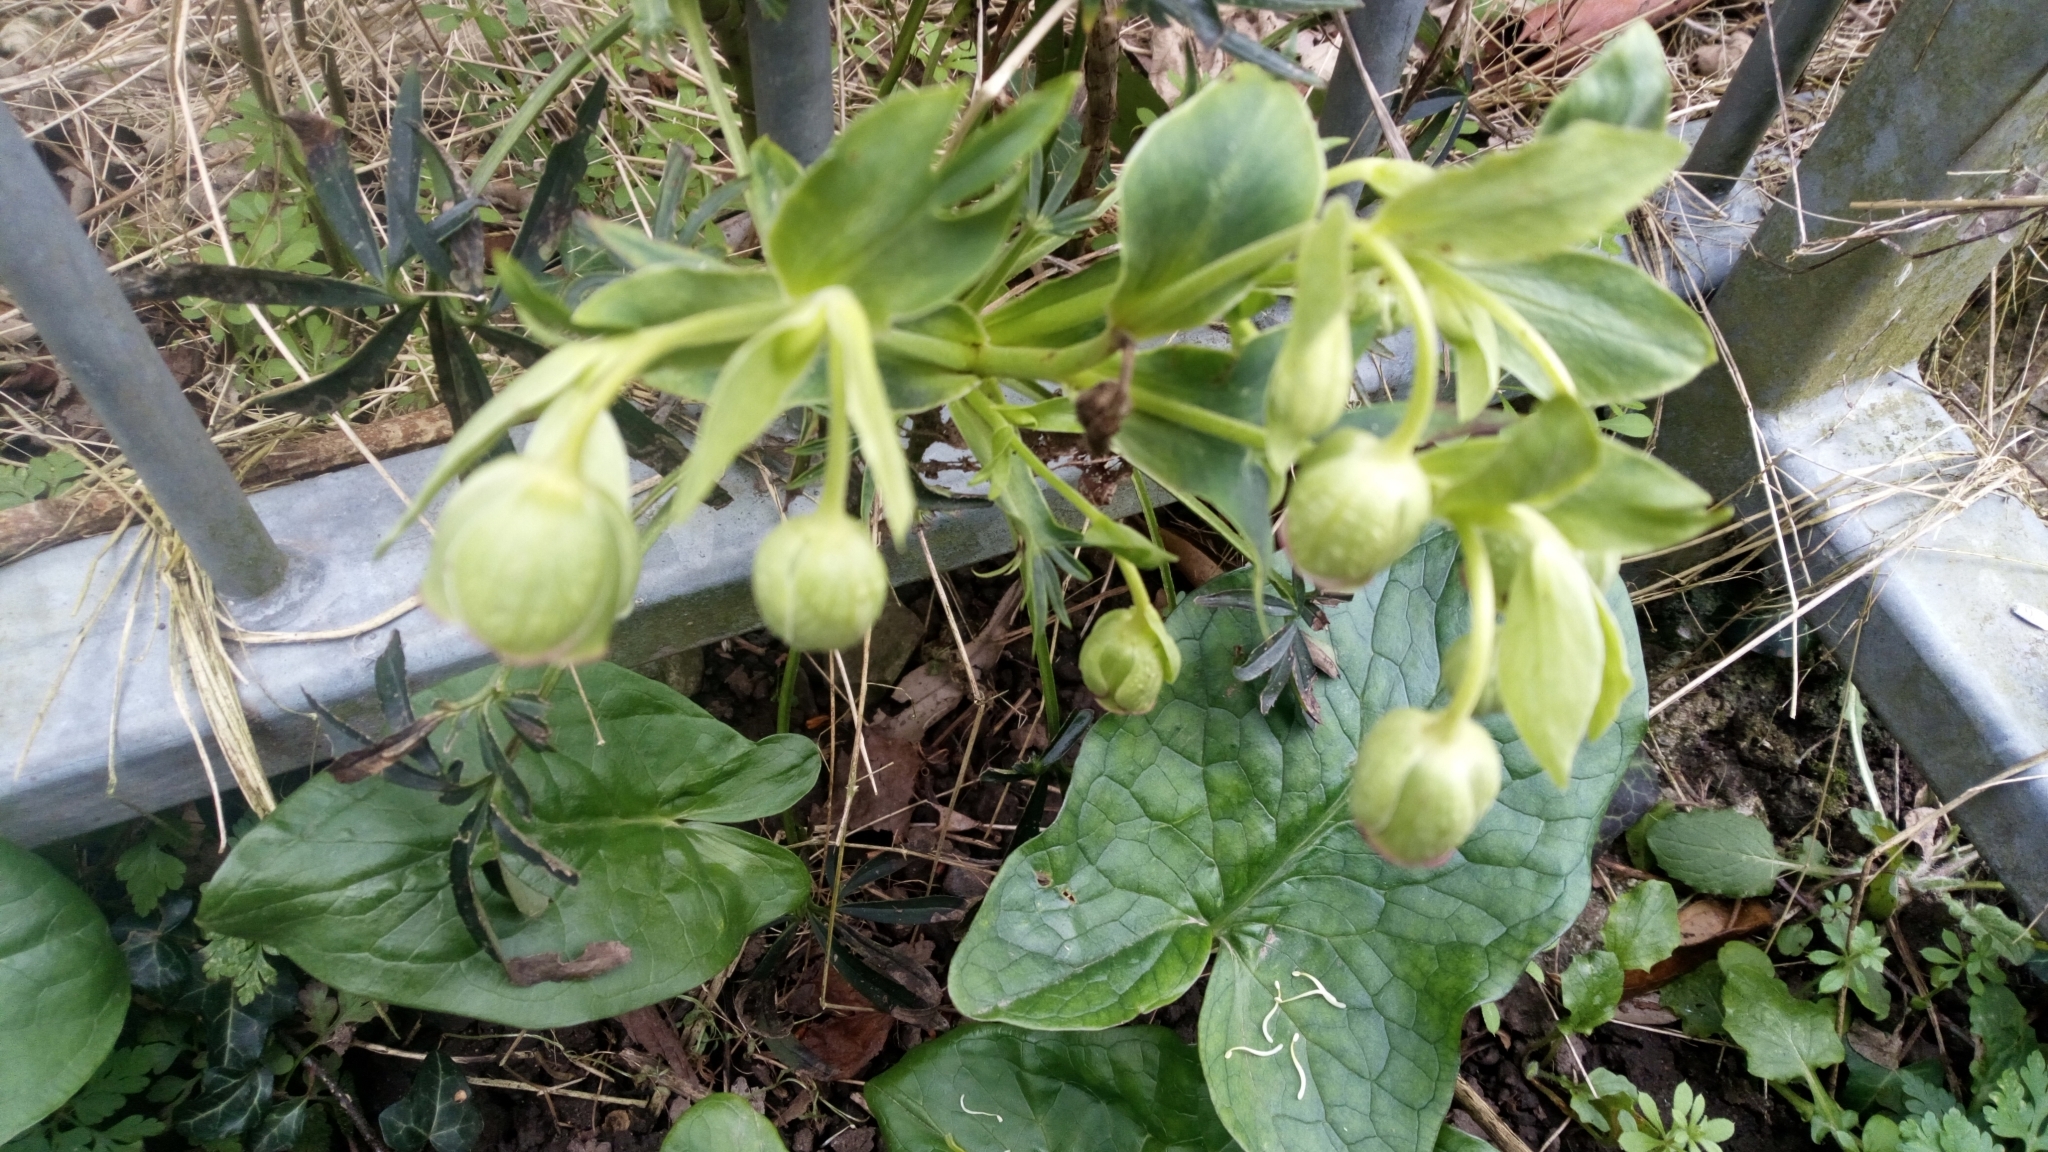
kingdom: Plantae
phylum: Tracheophyta
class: Magnoliopsida
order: Ranunculales
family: Ranunculaceae
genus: Helleborus
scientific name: Helleborus foetidus
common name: Stinking hellebore
